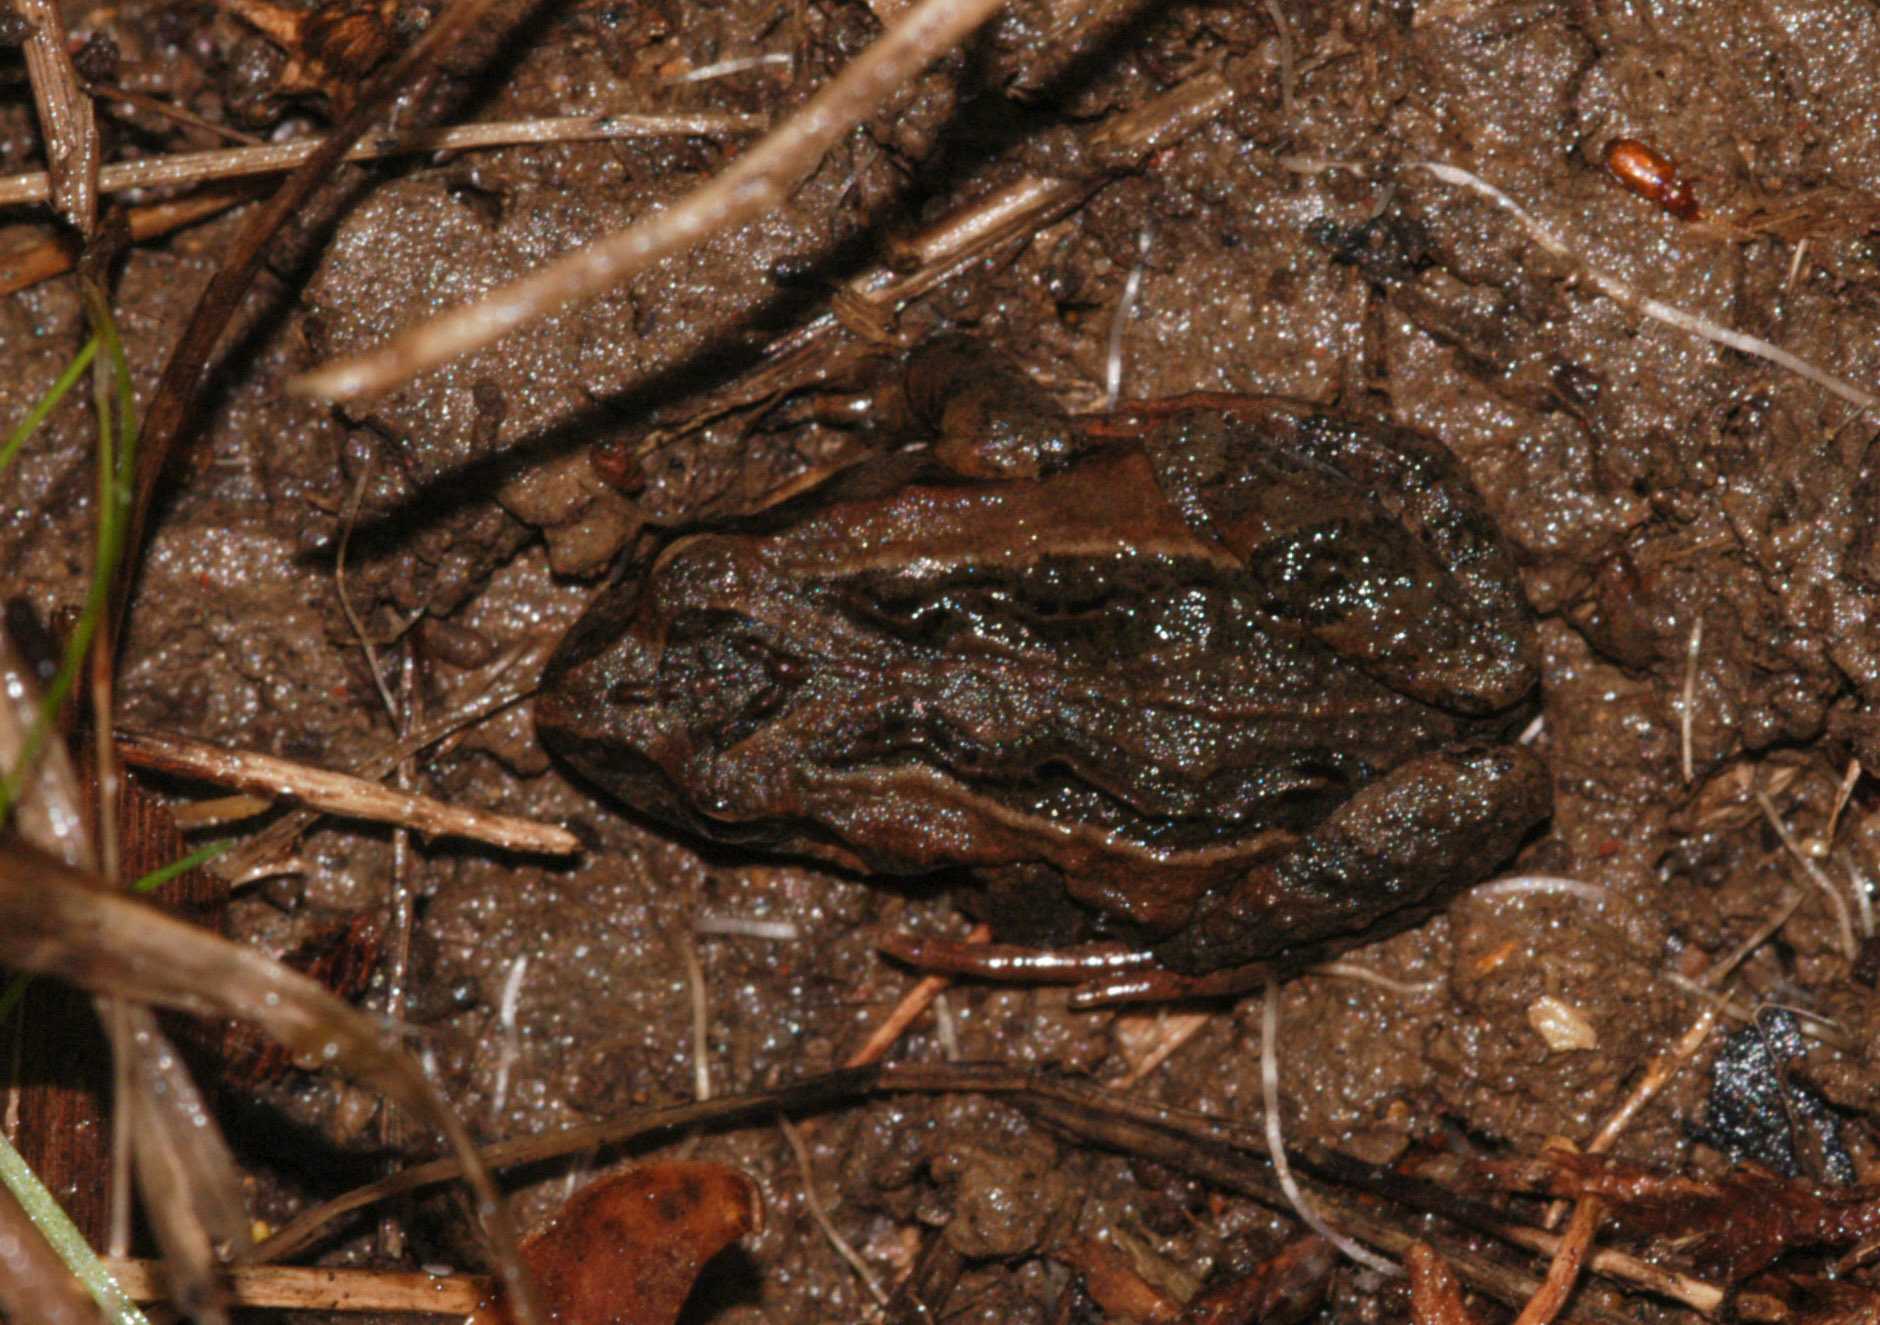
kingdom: Animalia
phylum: Chordata
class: Amphibia
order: Anura
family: Myobatrachidae
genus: Crinia
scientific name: Crinia signifera
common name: Brown froglet
